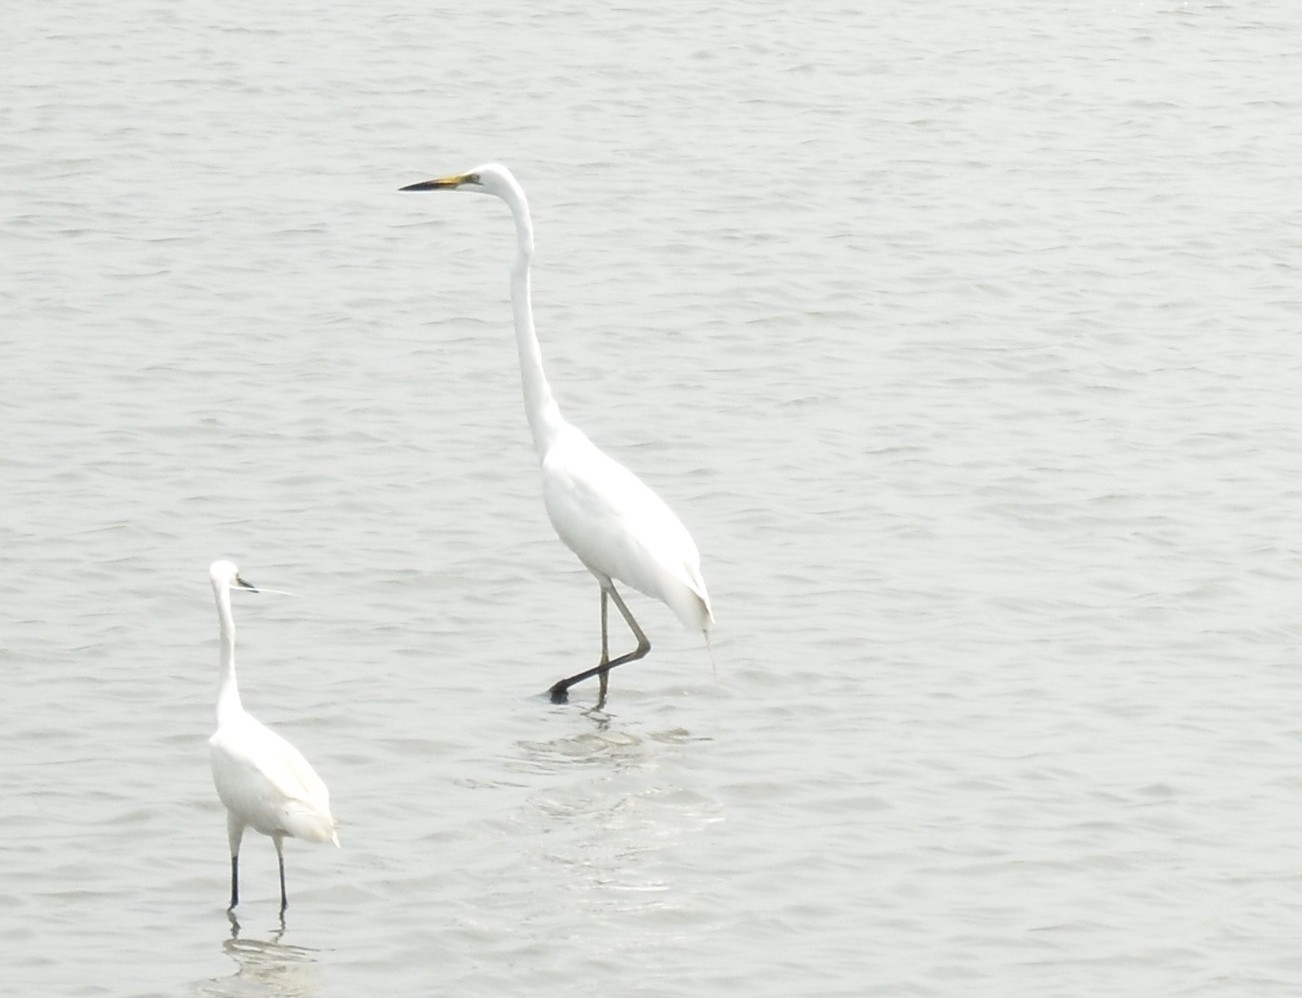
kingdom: Animalia
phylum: Chordata
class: Aves
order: Pelecaniformes
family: Ardeidae
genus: Ardea
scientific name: Ardea alba
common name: Great egret
